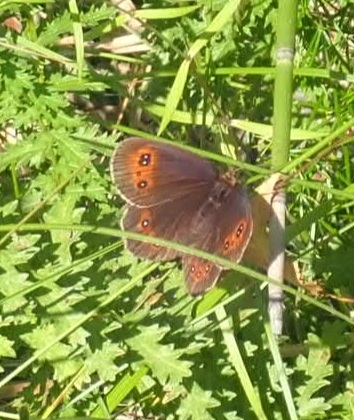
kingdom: Animalia
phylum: Arthropoda
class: Insecta
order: Lepidoptera
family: Nymphalidae
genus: Erebia
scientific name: Erebia aethiops
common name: Scotch argus
